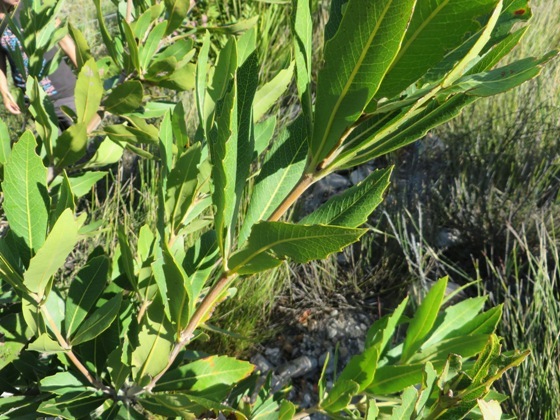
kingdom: Plantae
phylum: Tracheophyta
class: Magnoliopsida
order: Proteales
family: Proteaceae
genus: Brabejum
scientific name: Brabejum stellatifolium
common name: Wild almond
